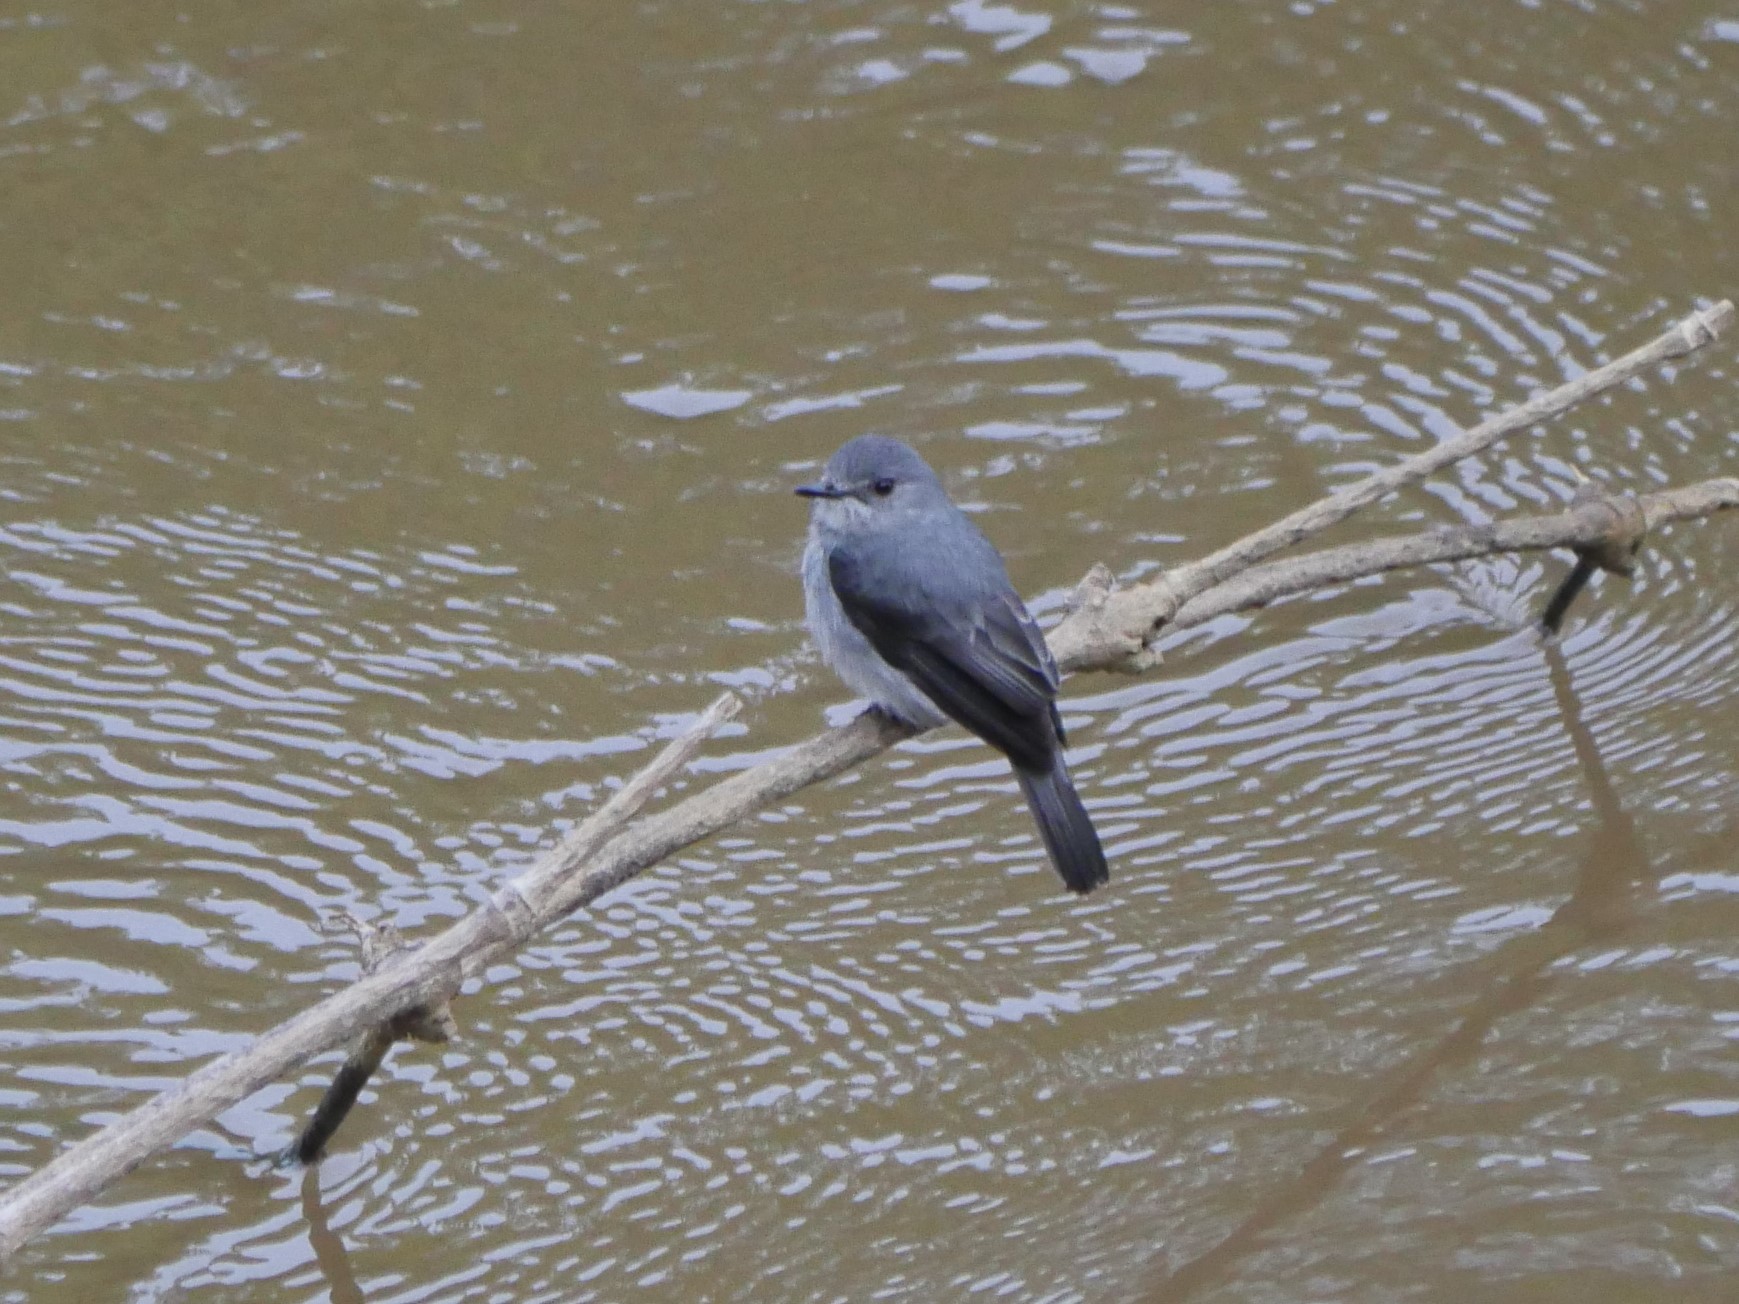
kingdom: Animalia
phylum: Chordata
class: Aves
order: Passeriformes
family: Muscicapidae
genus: Muscicapa
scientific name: Muscicapa cassini
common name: Cassin's flycatcher
